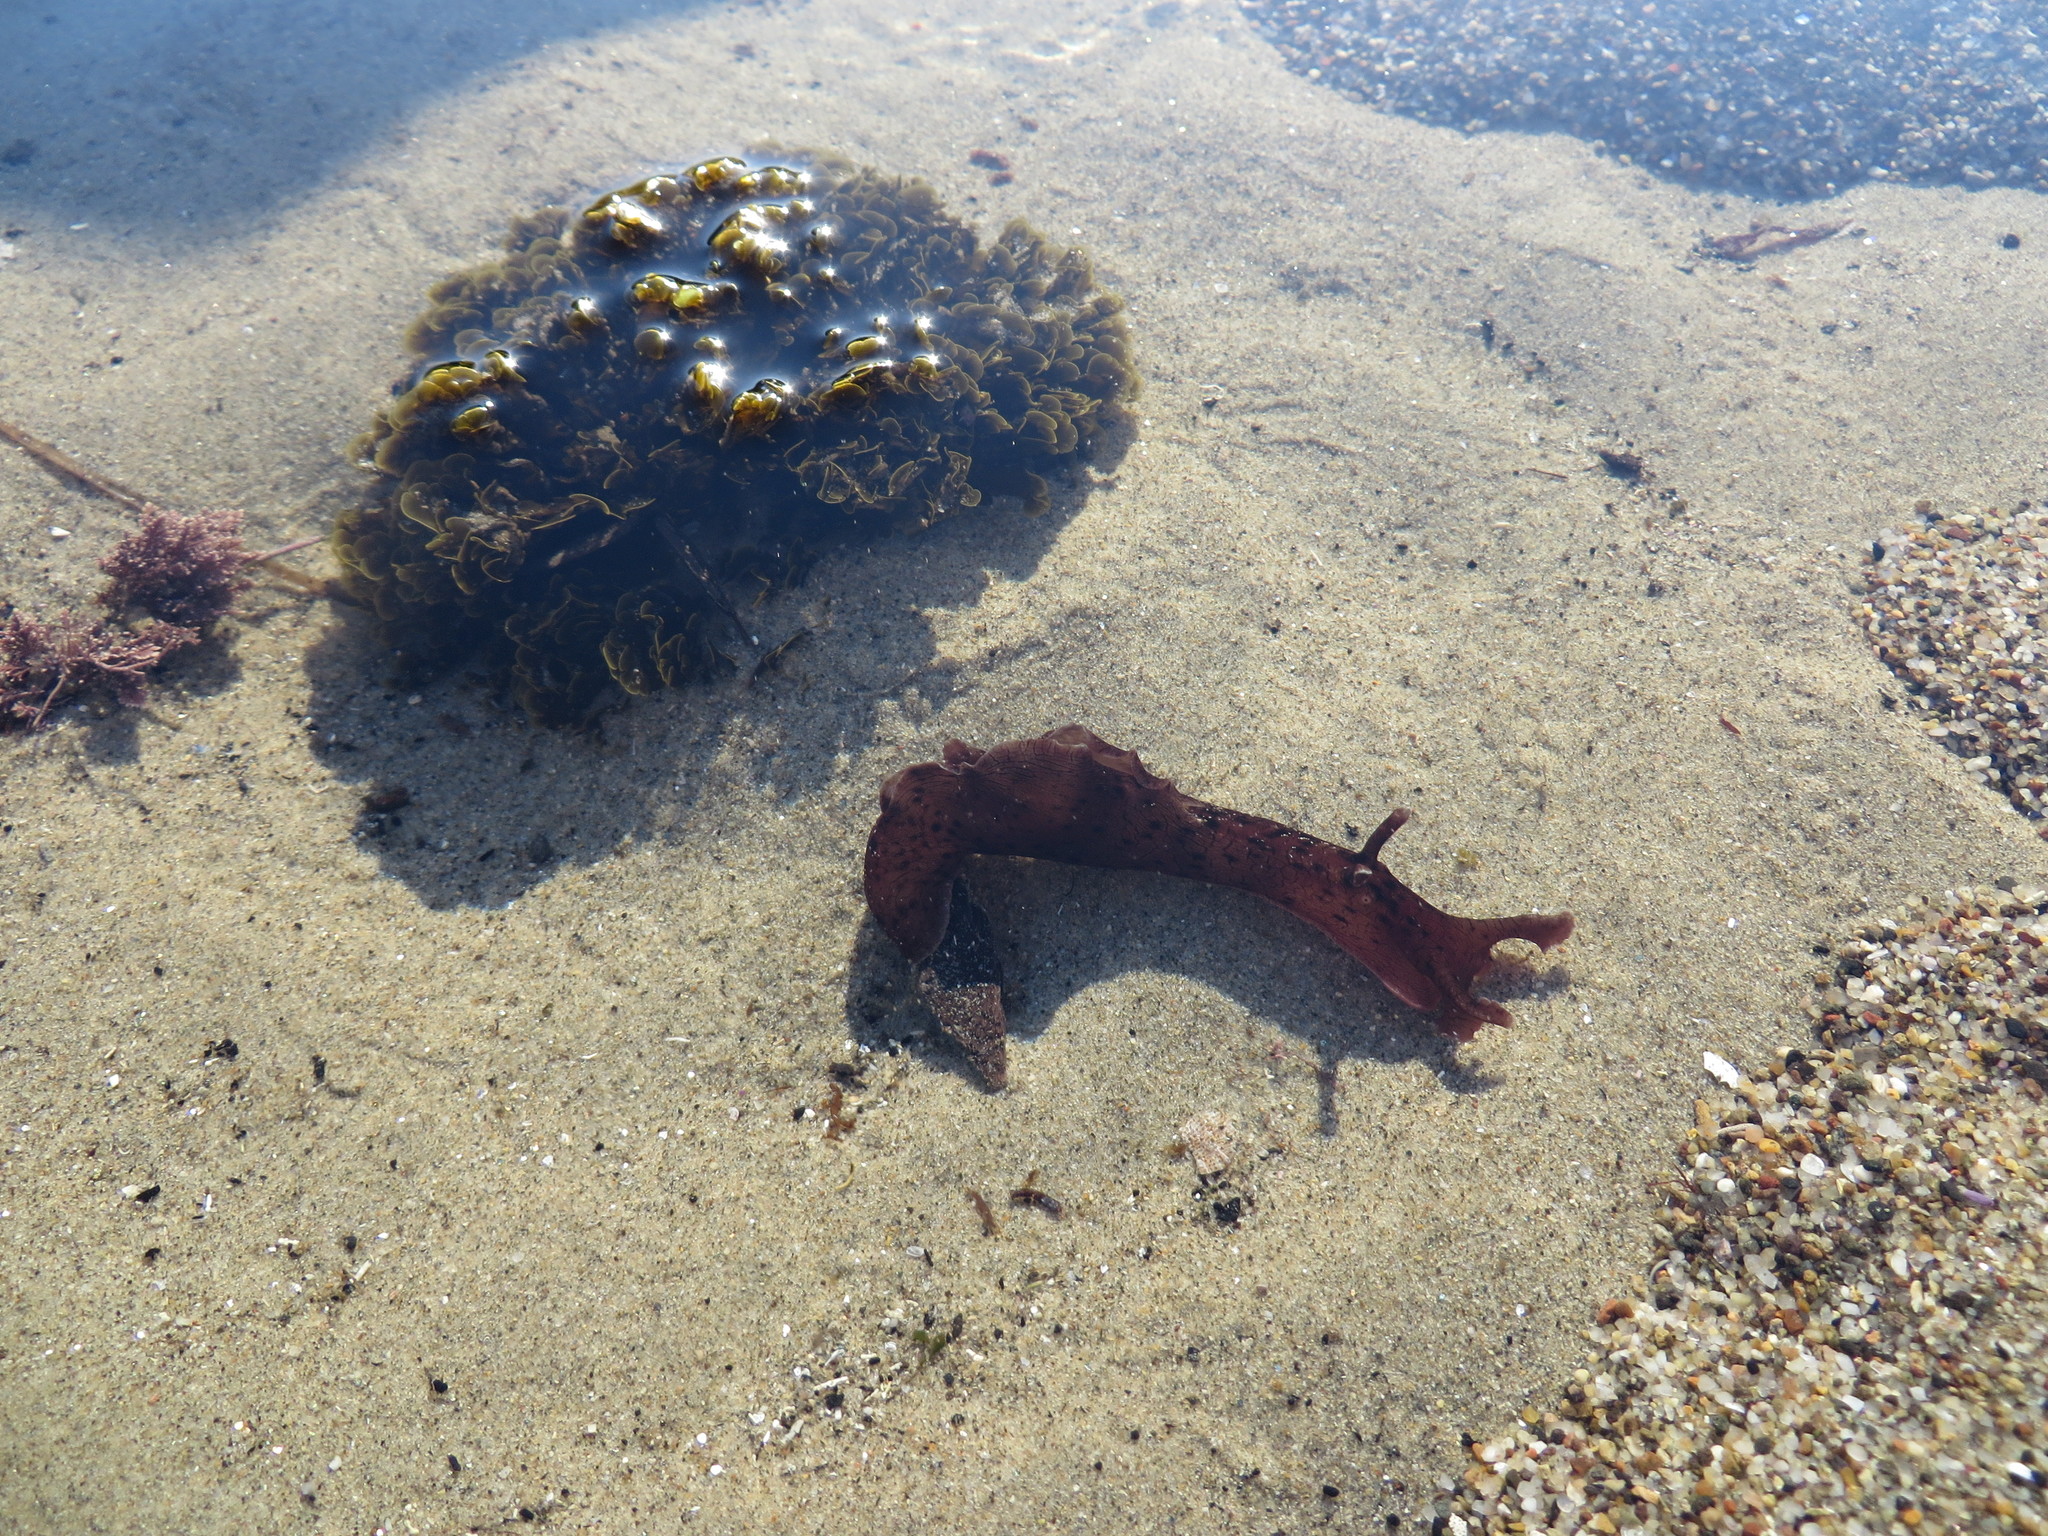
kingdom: Animalia
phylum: Mollusca
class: Gastropoda
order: Aplysiida
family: Aplysiidae
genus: Aplysia
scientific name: Aplysia californica
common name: California seahare
